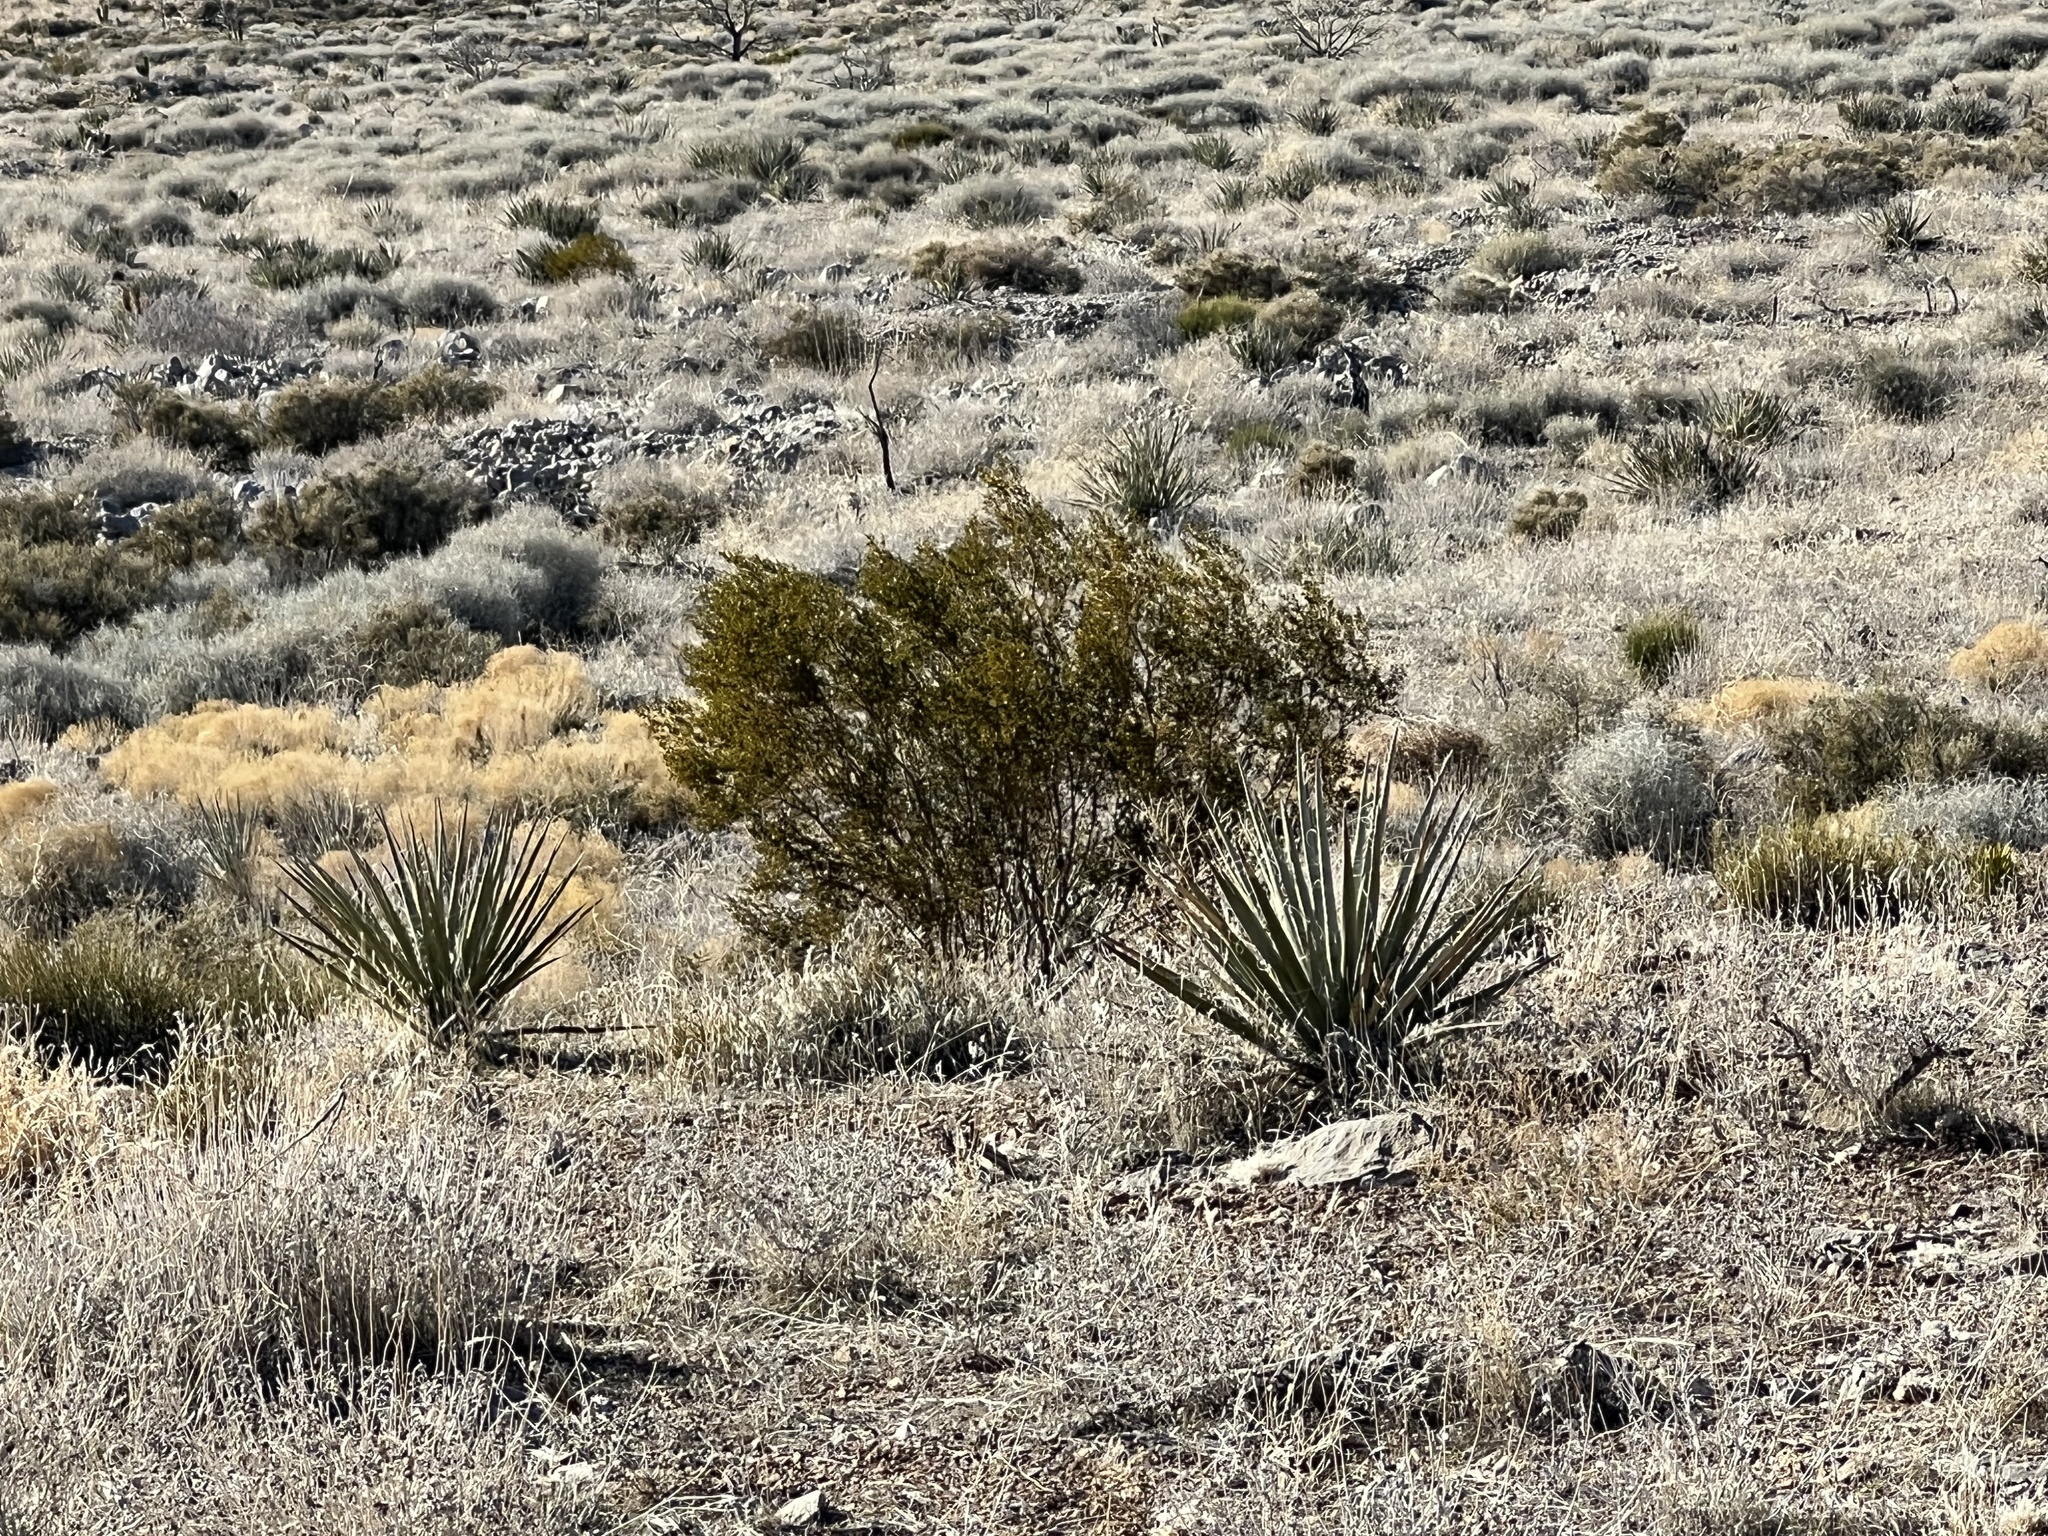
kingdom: Plantae
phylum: Tracheophyta
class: Magnoliopsida
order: Zygophyllales
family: Zygophyllaceae
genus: Larrea
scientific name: Larrea tridentata
